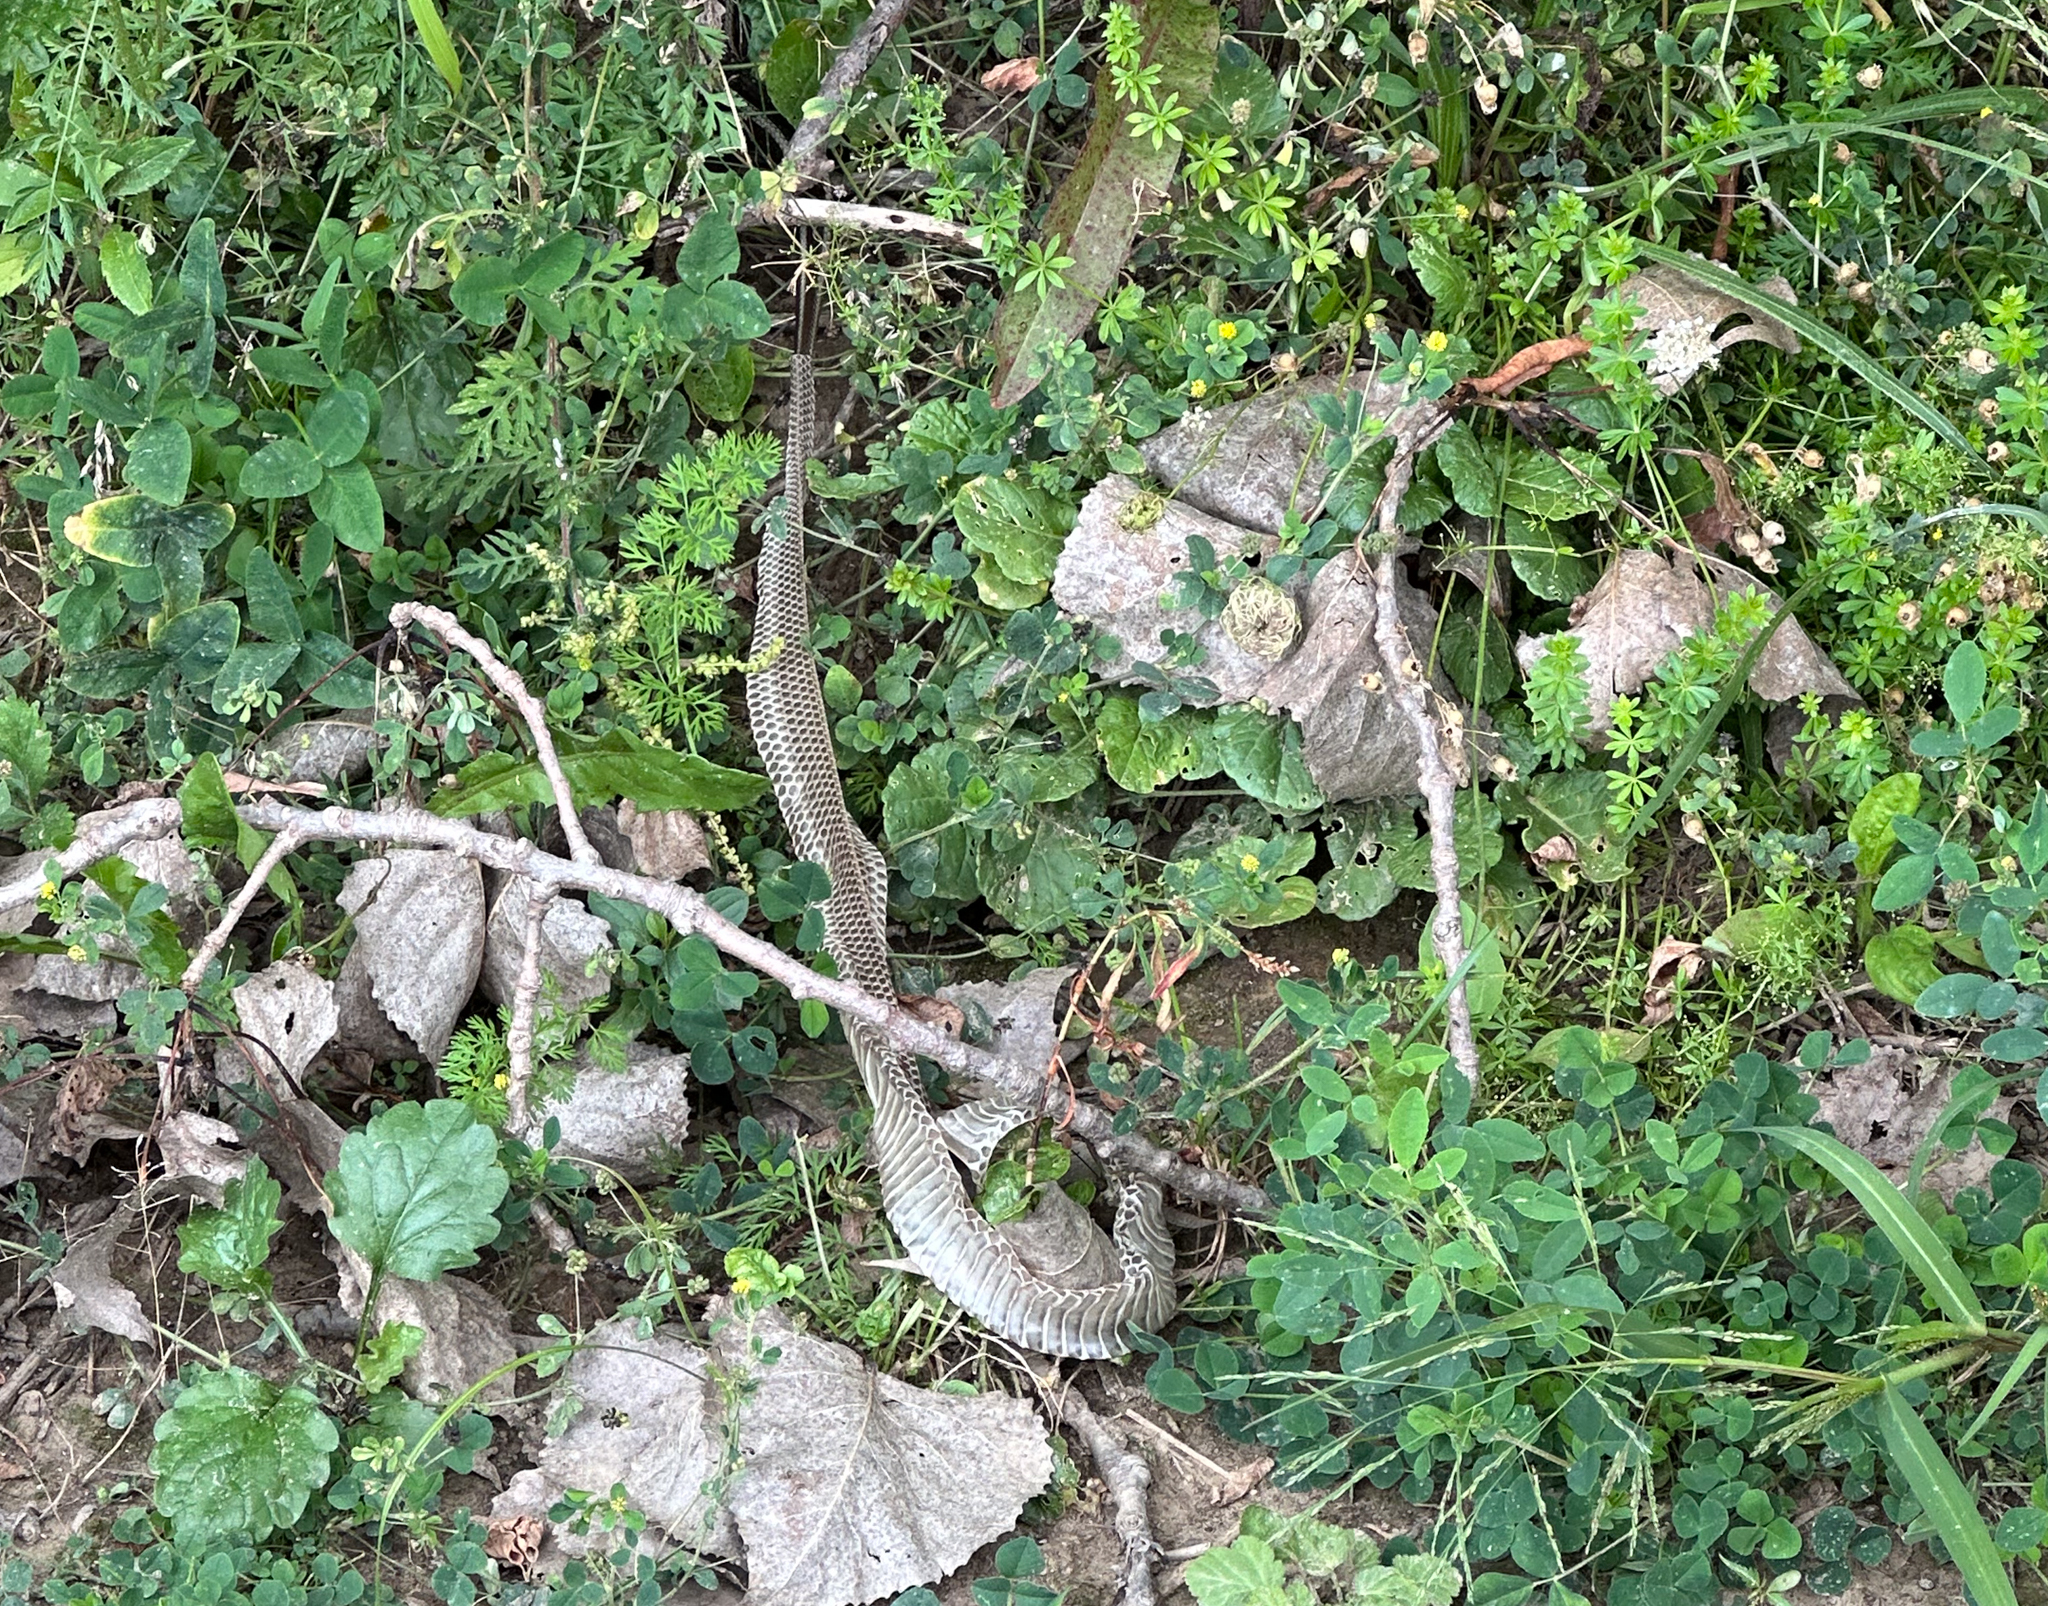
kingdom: Animalia
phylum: Chordata
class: Squamata
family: Colubridae
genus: Thamnophis
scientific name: Thamnophis sirtalis
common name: Common garter snake
